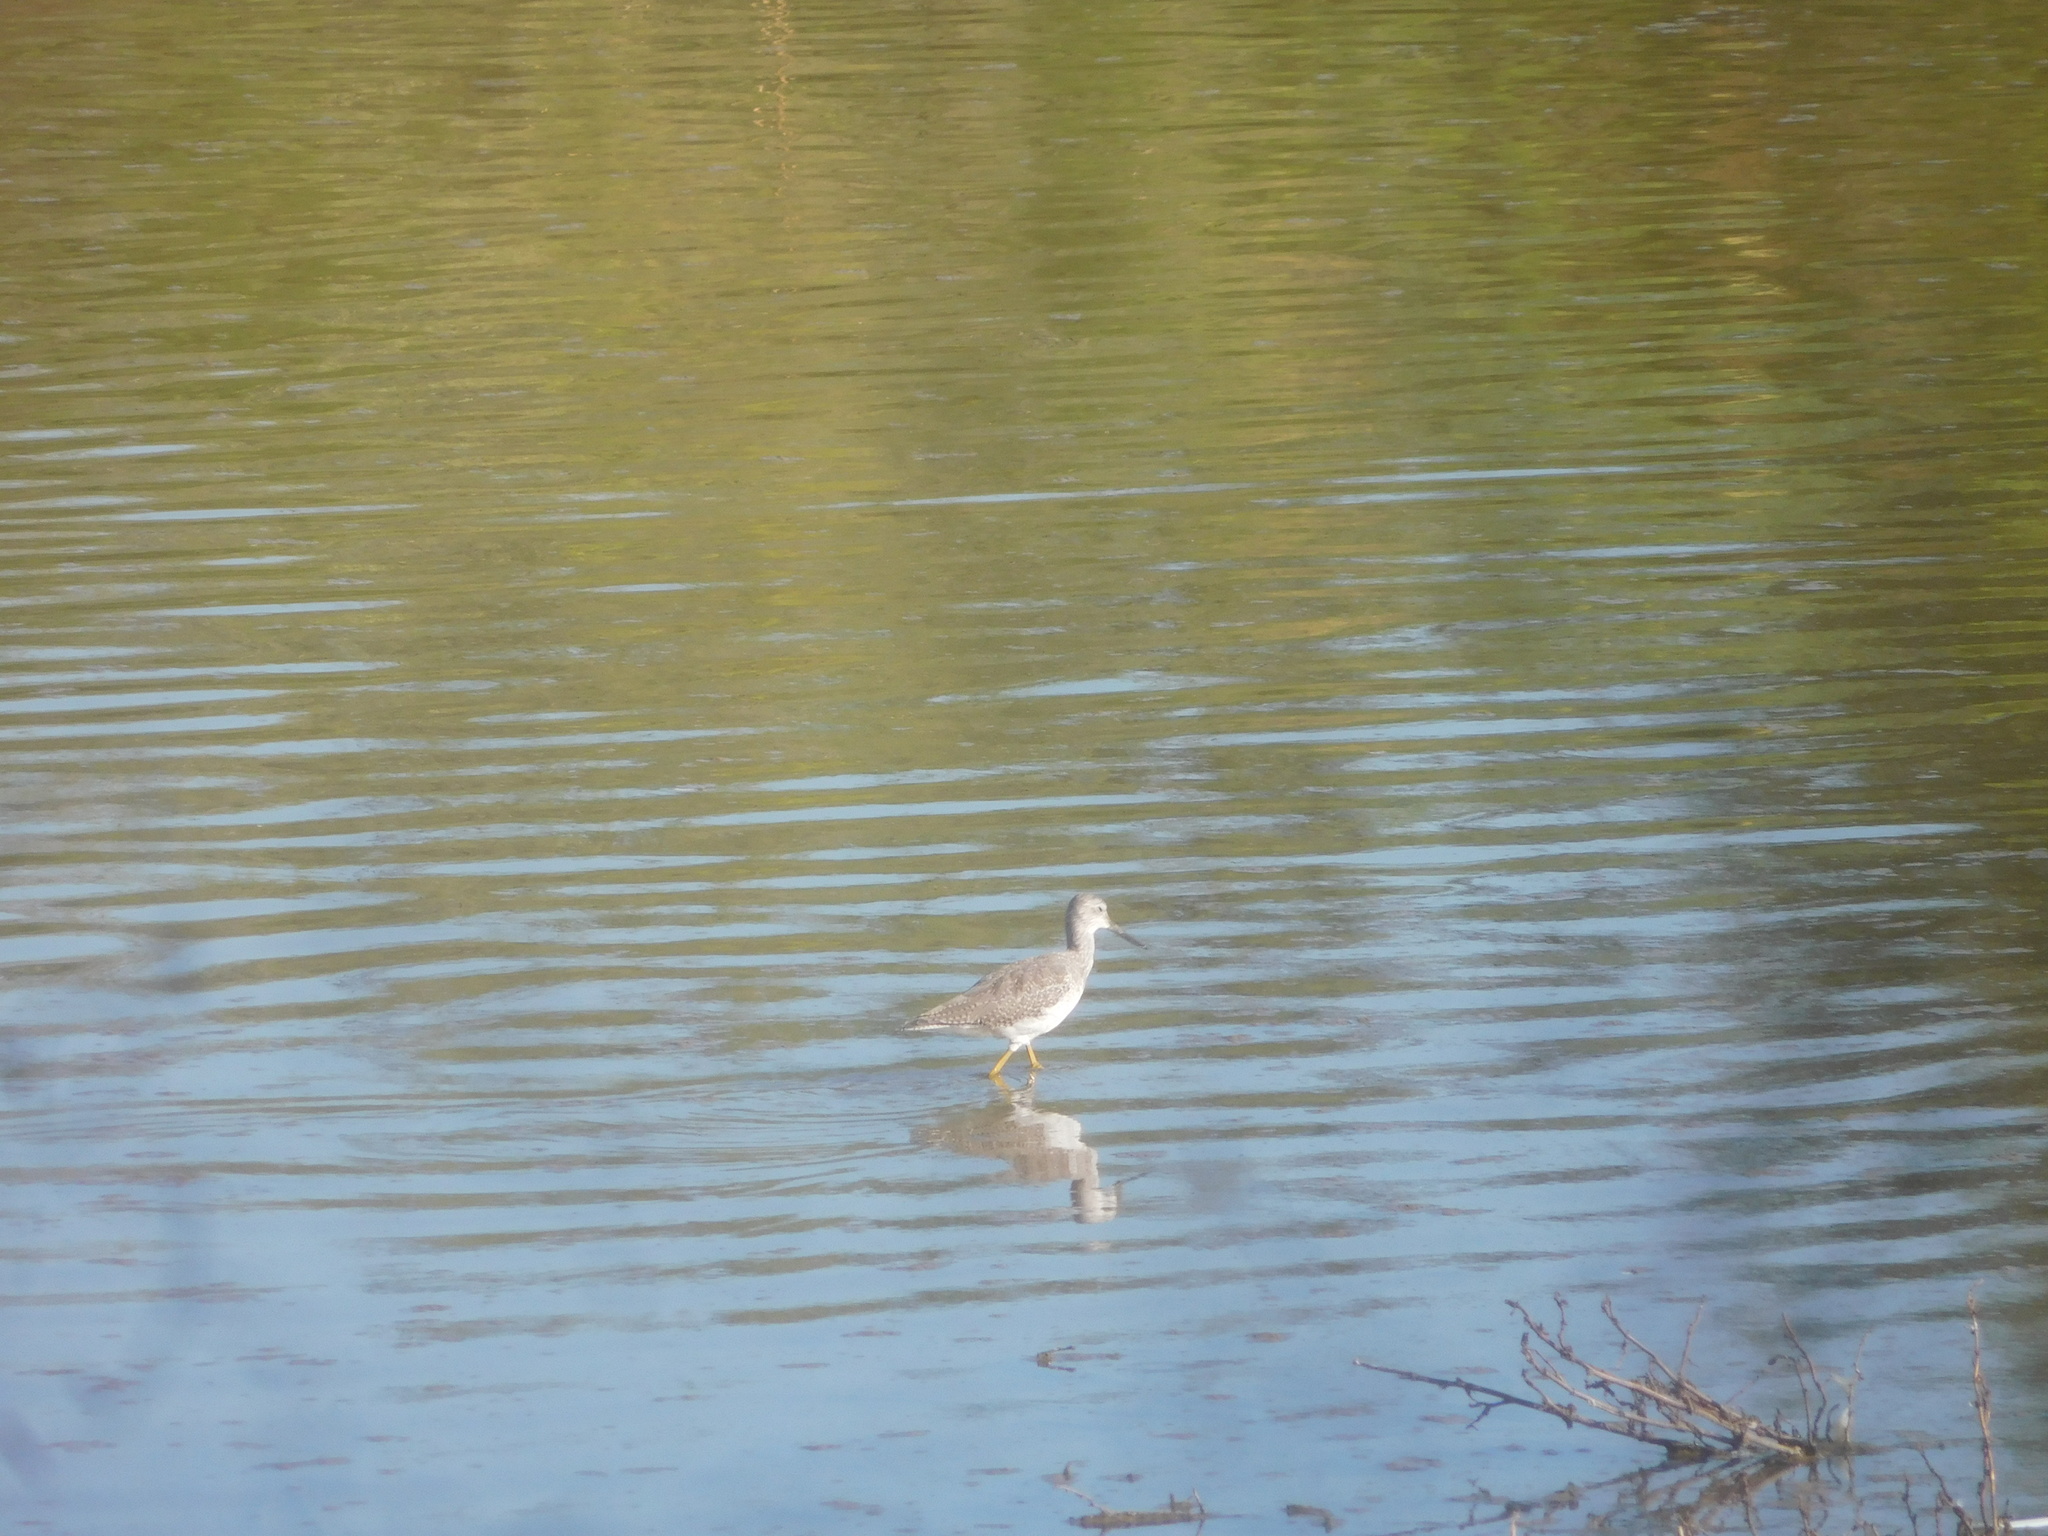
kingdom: Animalia
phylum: Chordata
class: Aves
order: Charadriiformes
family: Scolopacidae
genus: Tringa
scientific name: Tringa melanoleuca
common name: Greater yellowlegs
